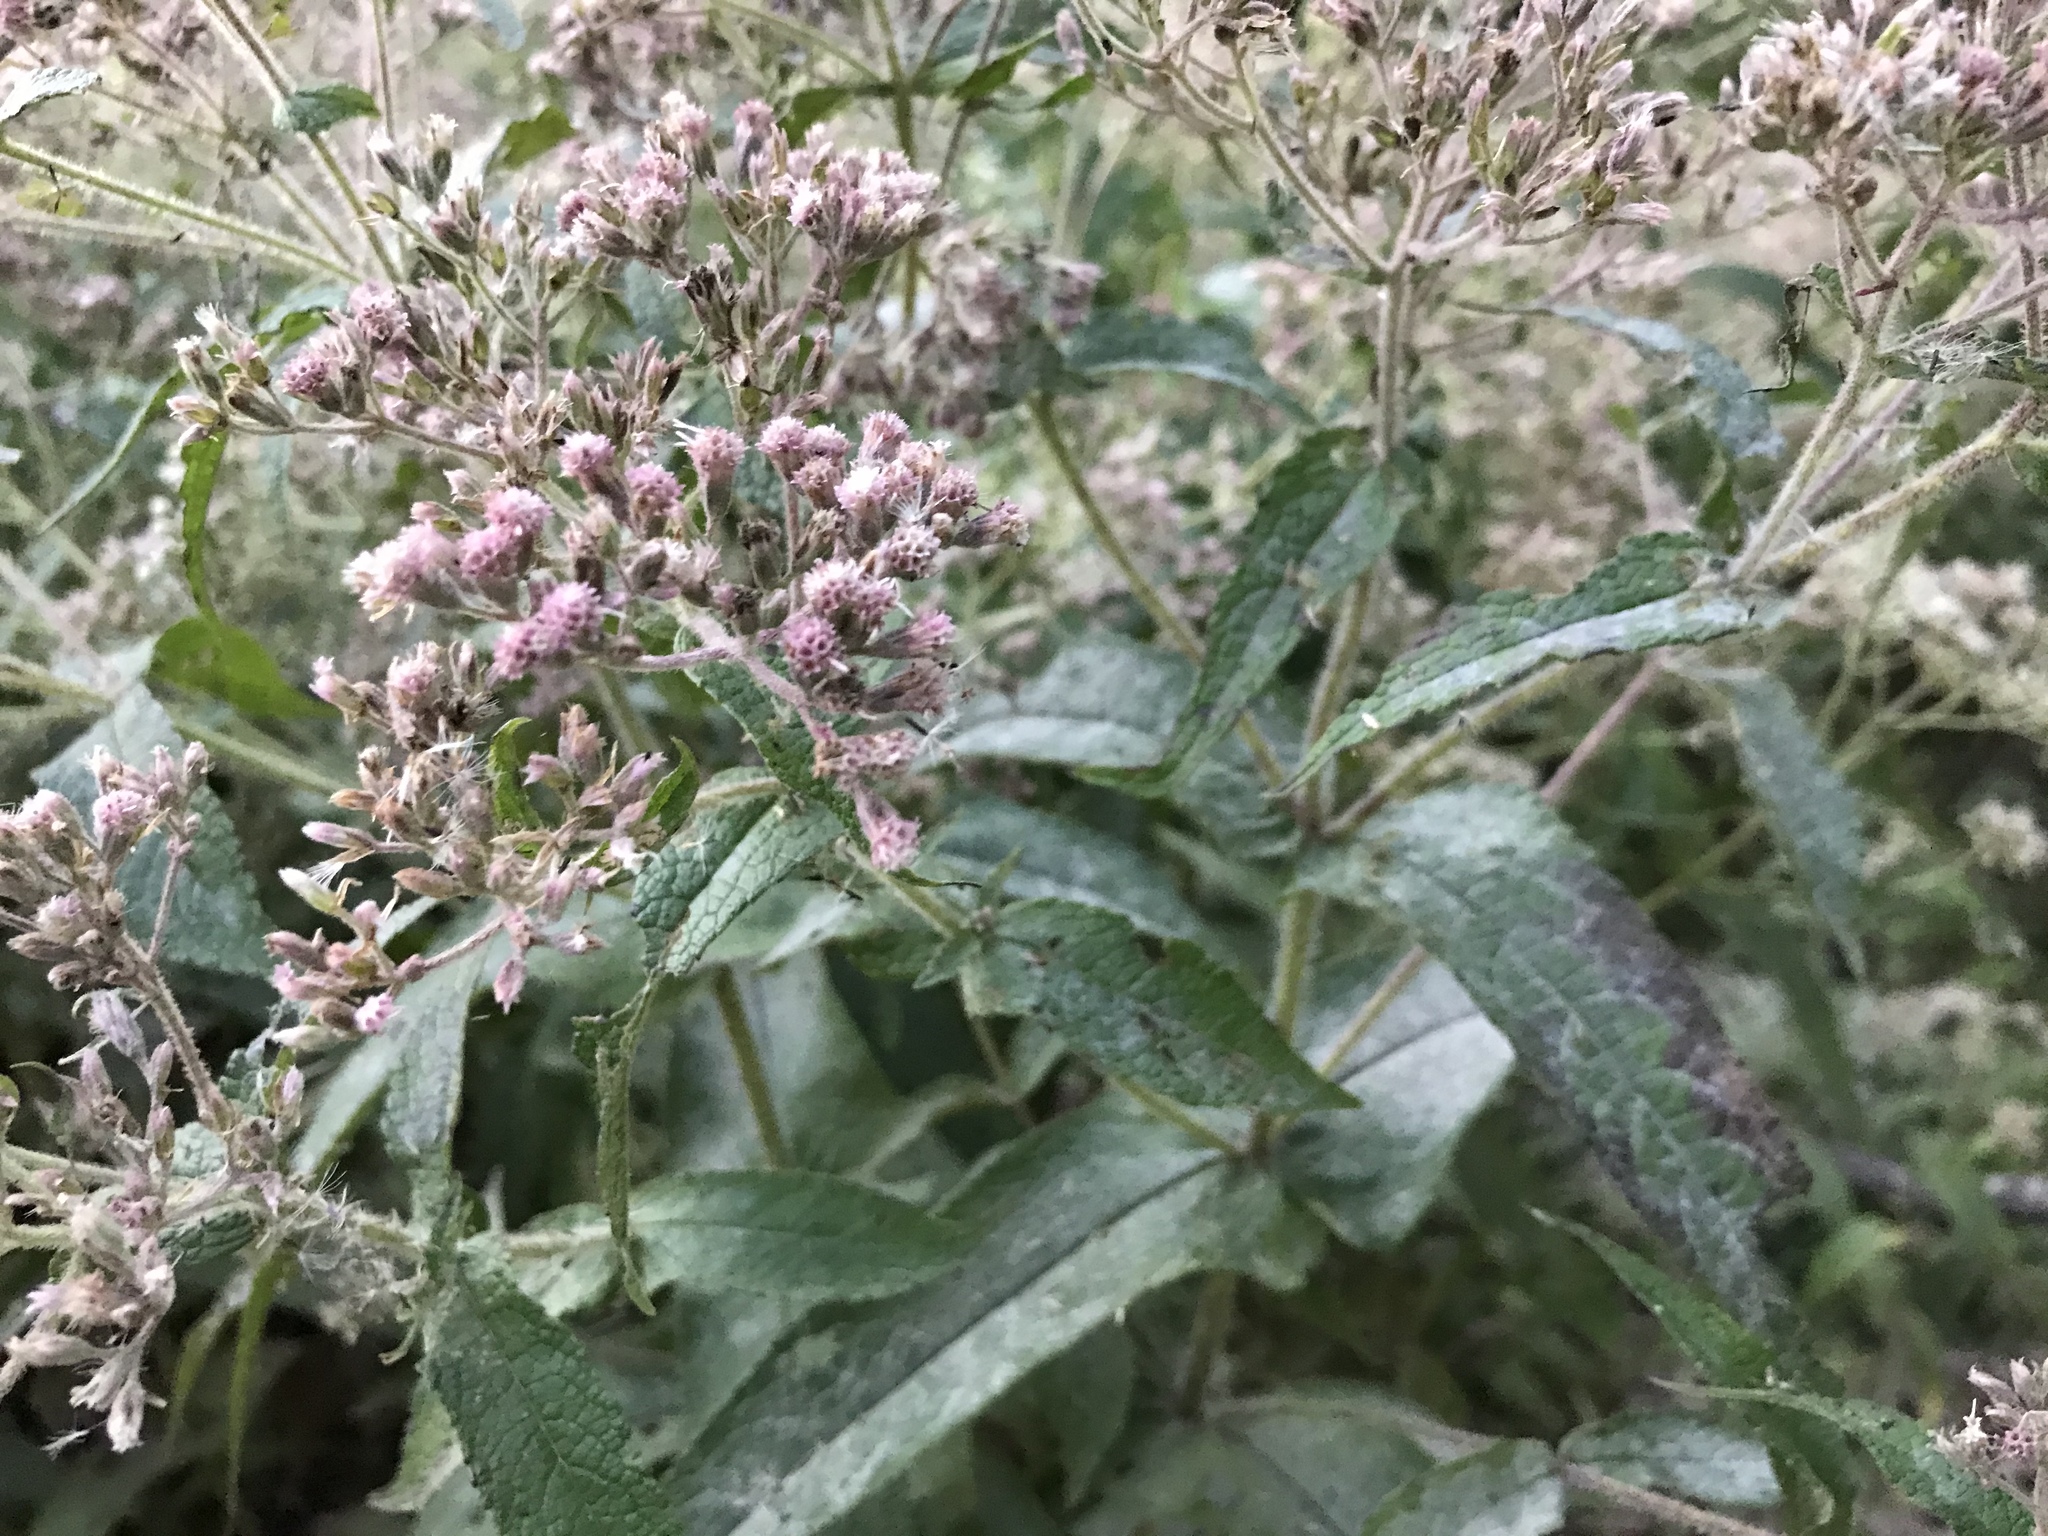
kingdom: Plantae
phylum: Tracheophyta
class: Magnoliopsida
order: Asterales
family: Asteraceae
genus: Eupatorium
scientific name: Eupatorium perfoliatum
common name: Boneset
